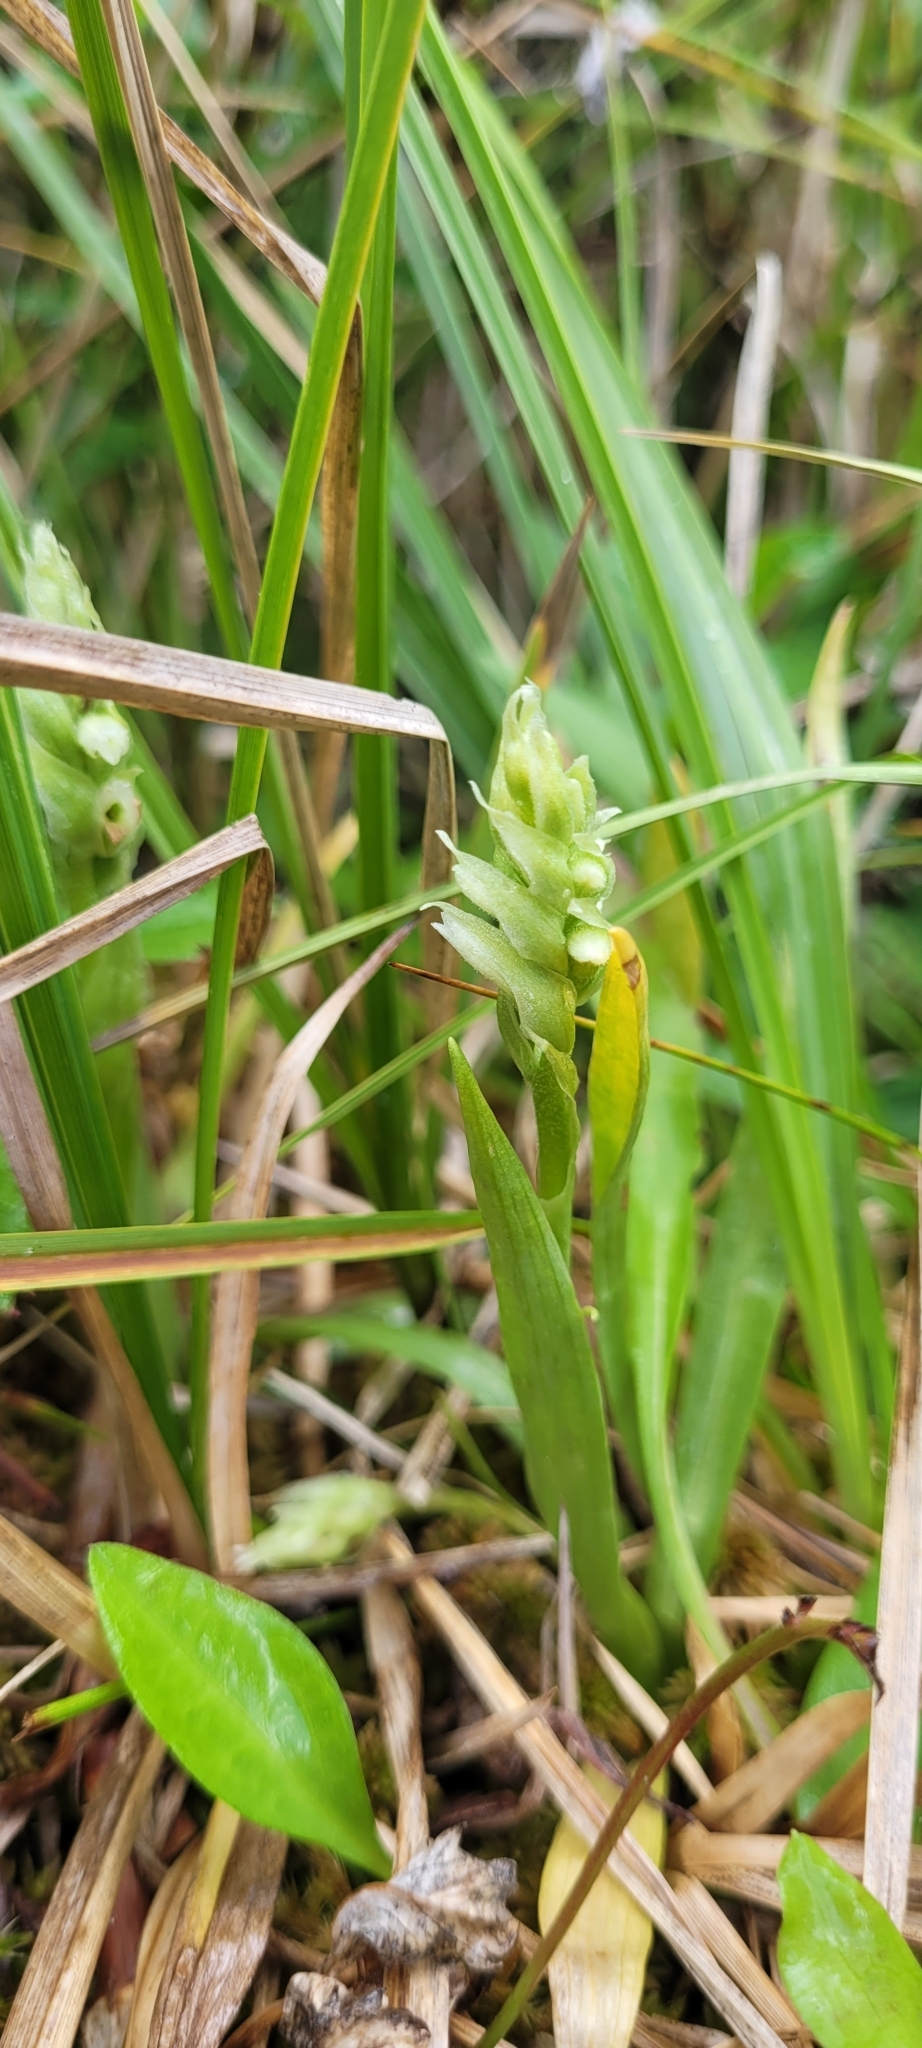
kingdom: Plantae
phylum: Tracheophyta
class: Liliopsida
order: Asparagales
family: Orchidaceae
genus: Spiranthes
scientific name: Spiranthes romanzoffiana
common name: Irish lady's-tresses
